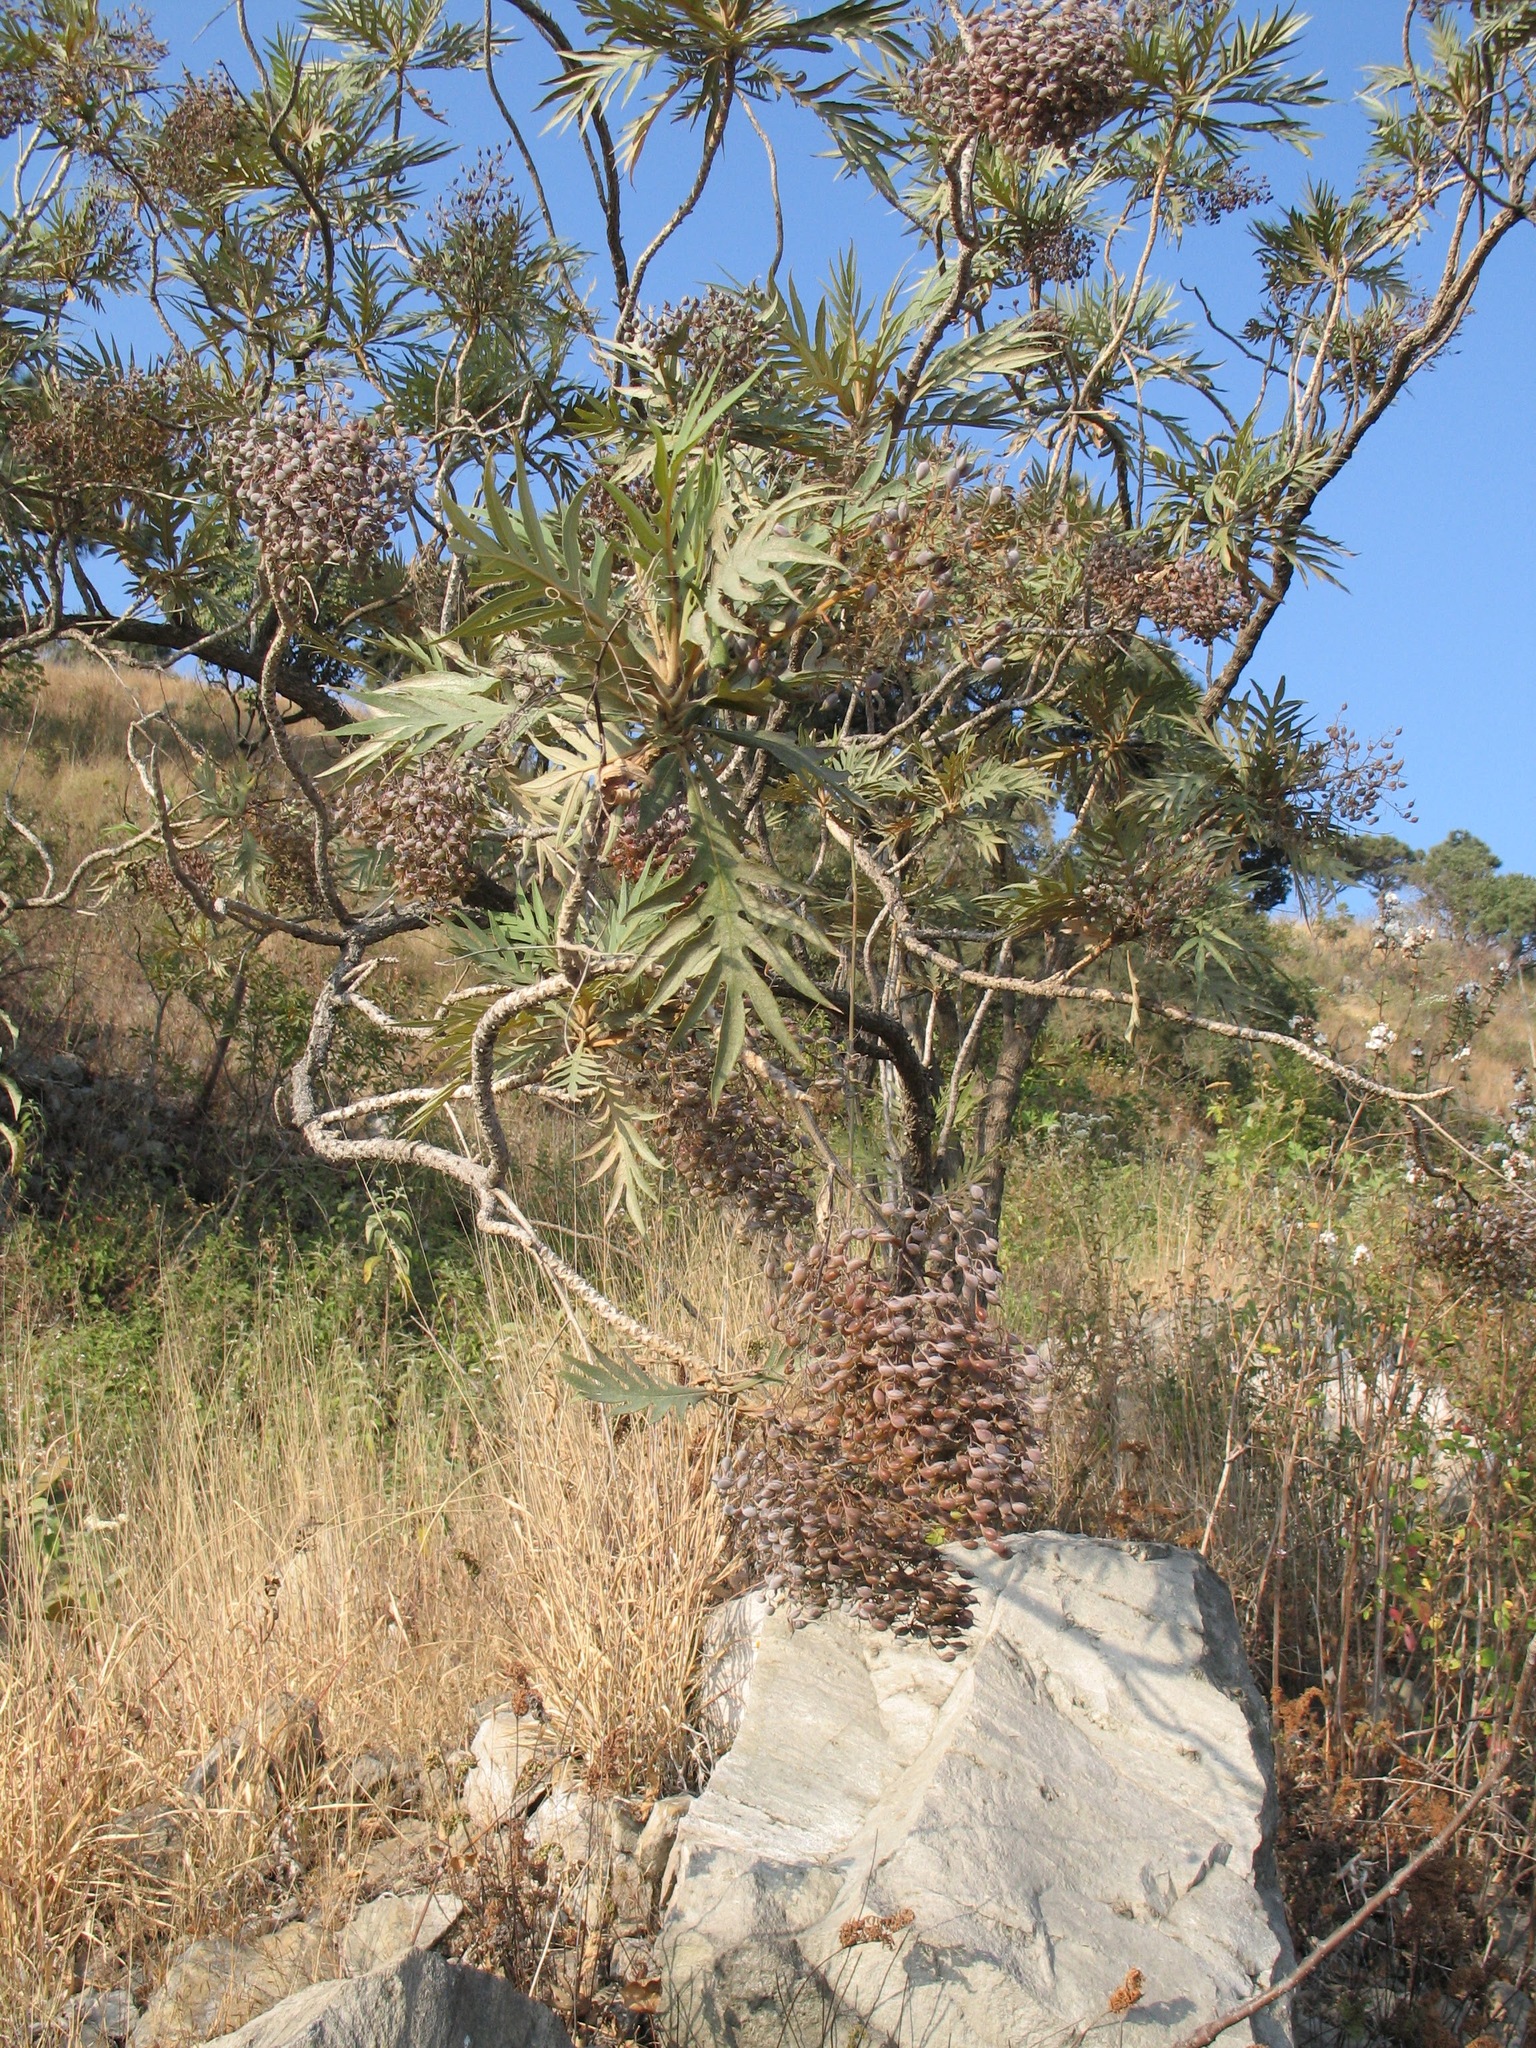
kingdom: Plantae
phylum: Tracheophyta
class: Magnoliopsida
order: Ranunculales
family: Papaveraceae
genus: Bocconia
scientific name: Bocconia arborea
